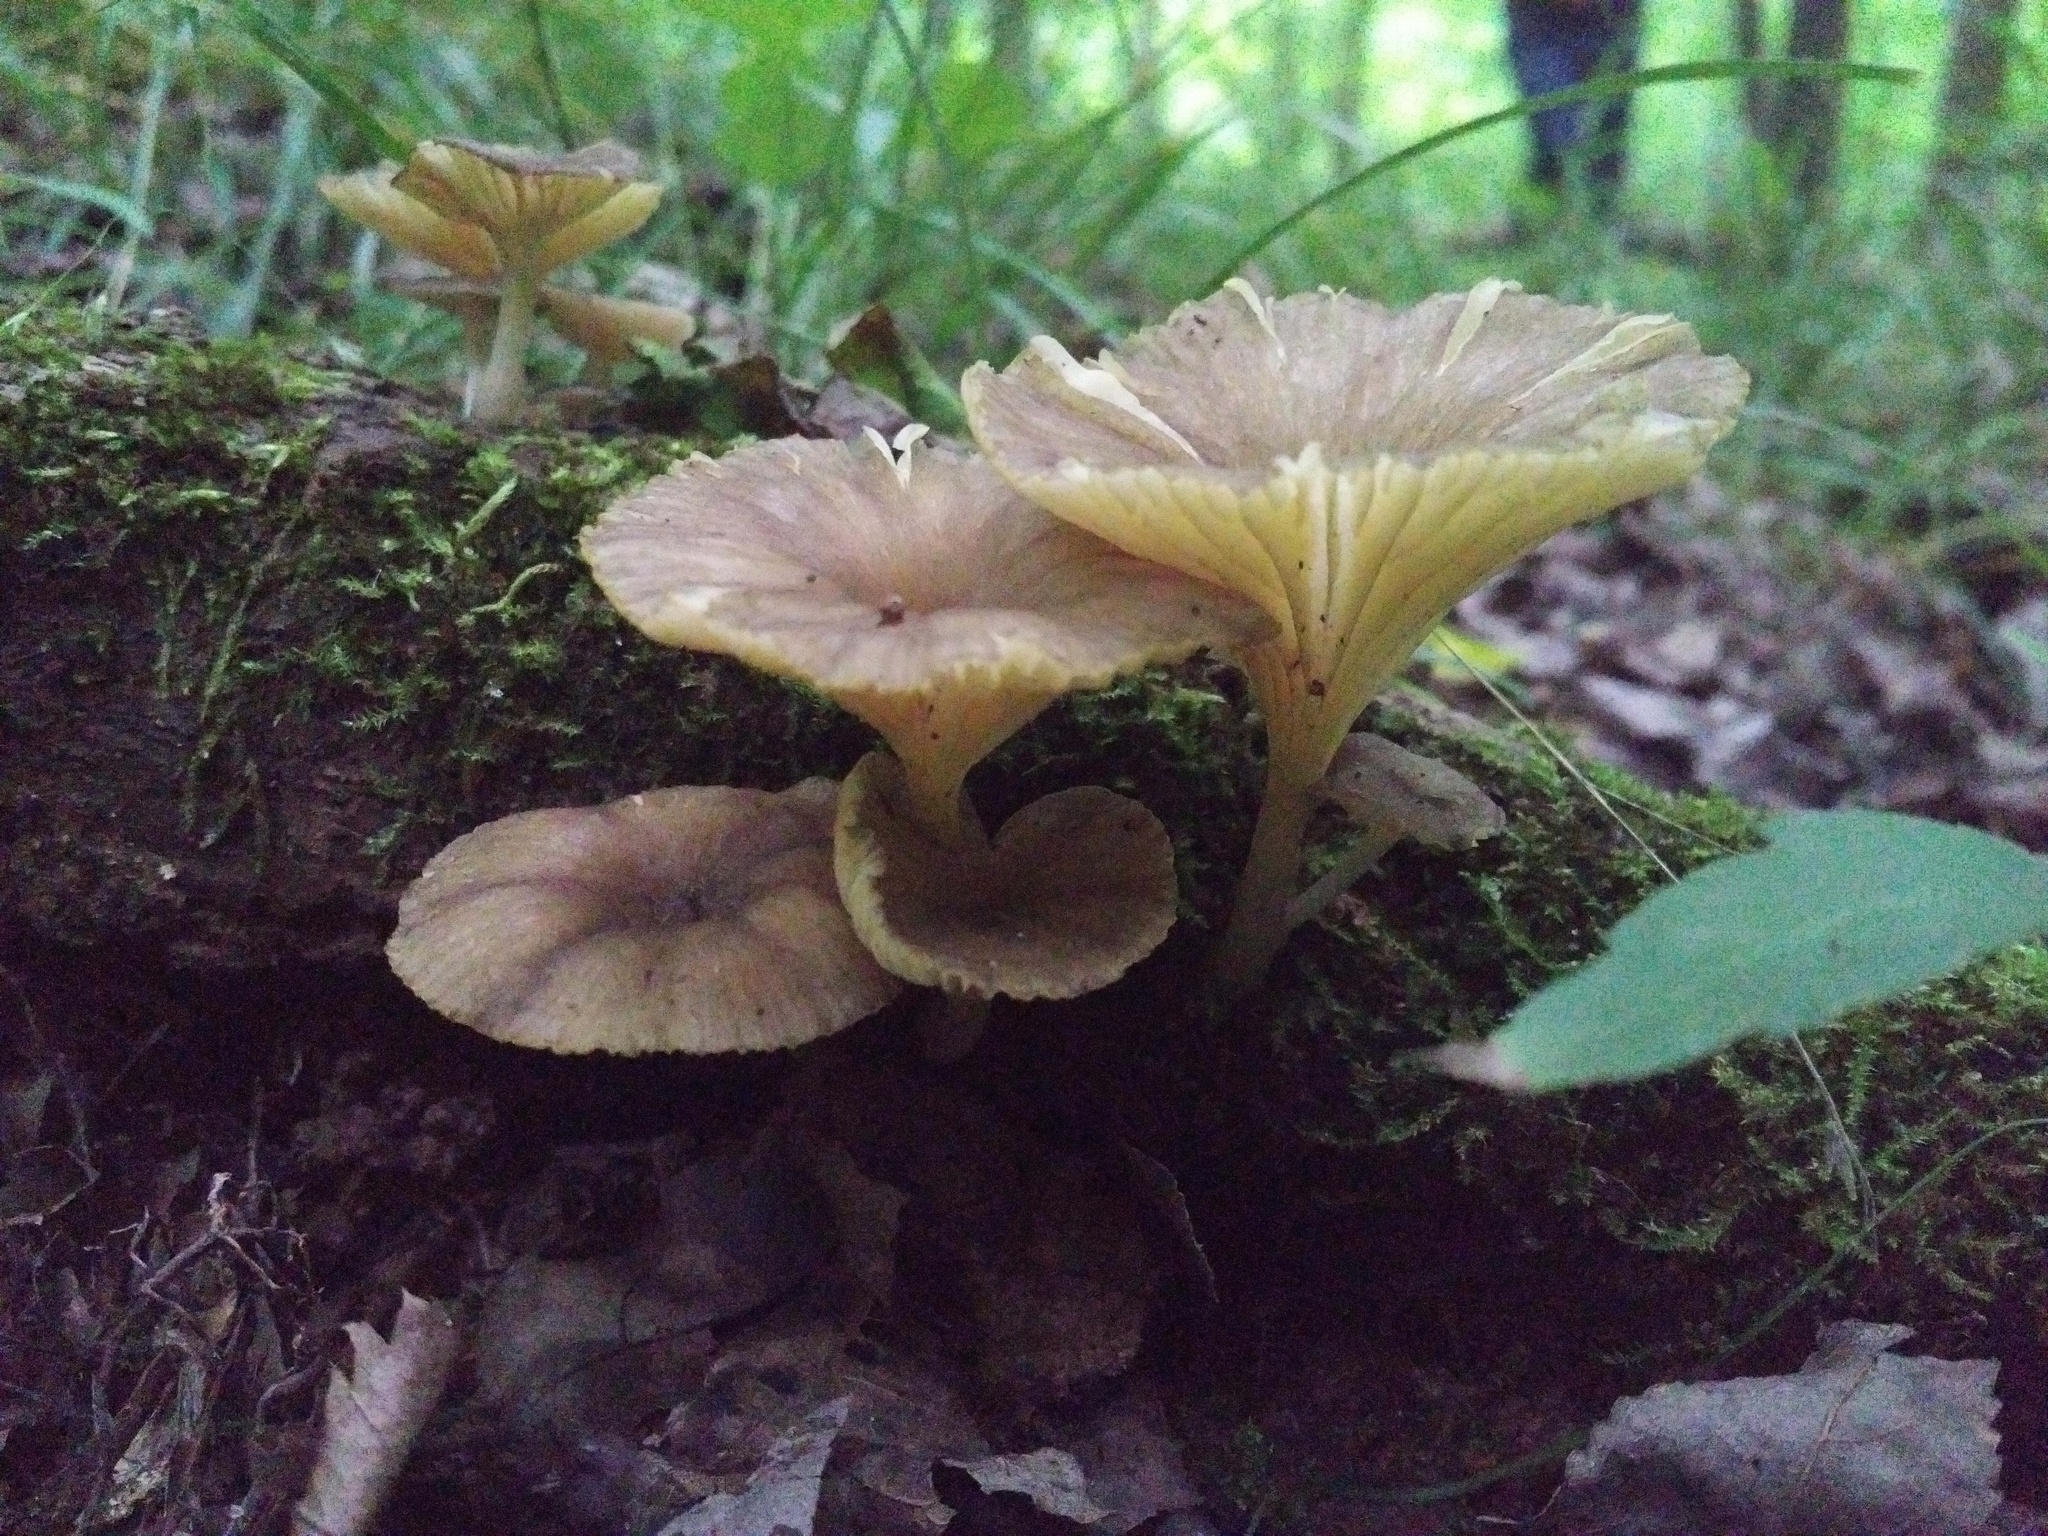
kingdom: Fungi
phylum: Basidiomycota
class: Agaricomycetes
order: Agaricales
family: Marasmiaceae
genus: Gerronema
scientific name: Gerronema strombodes
